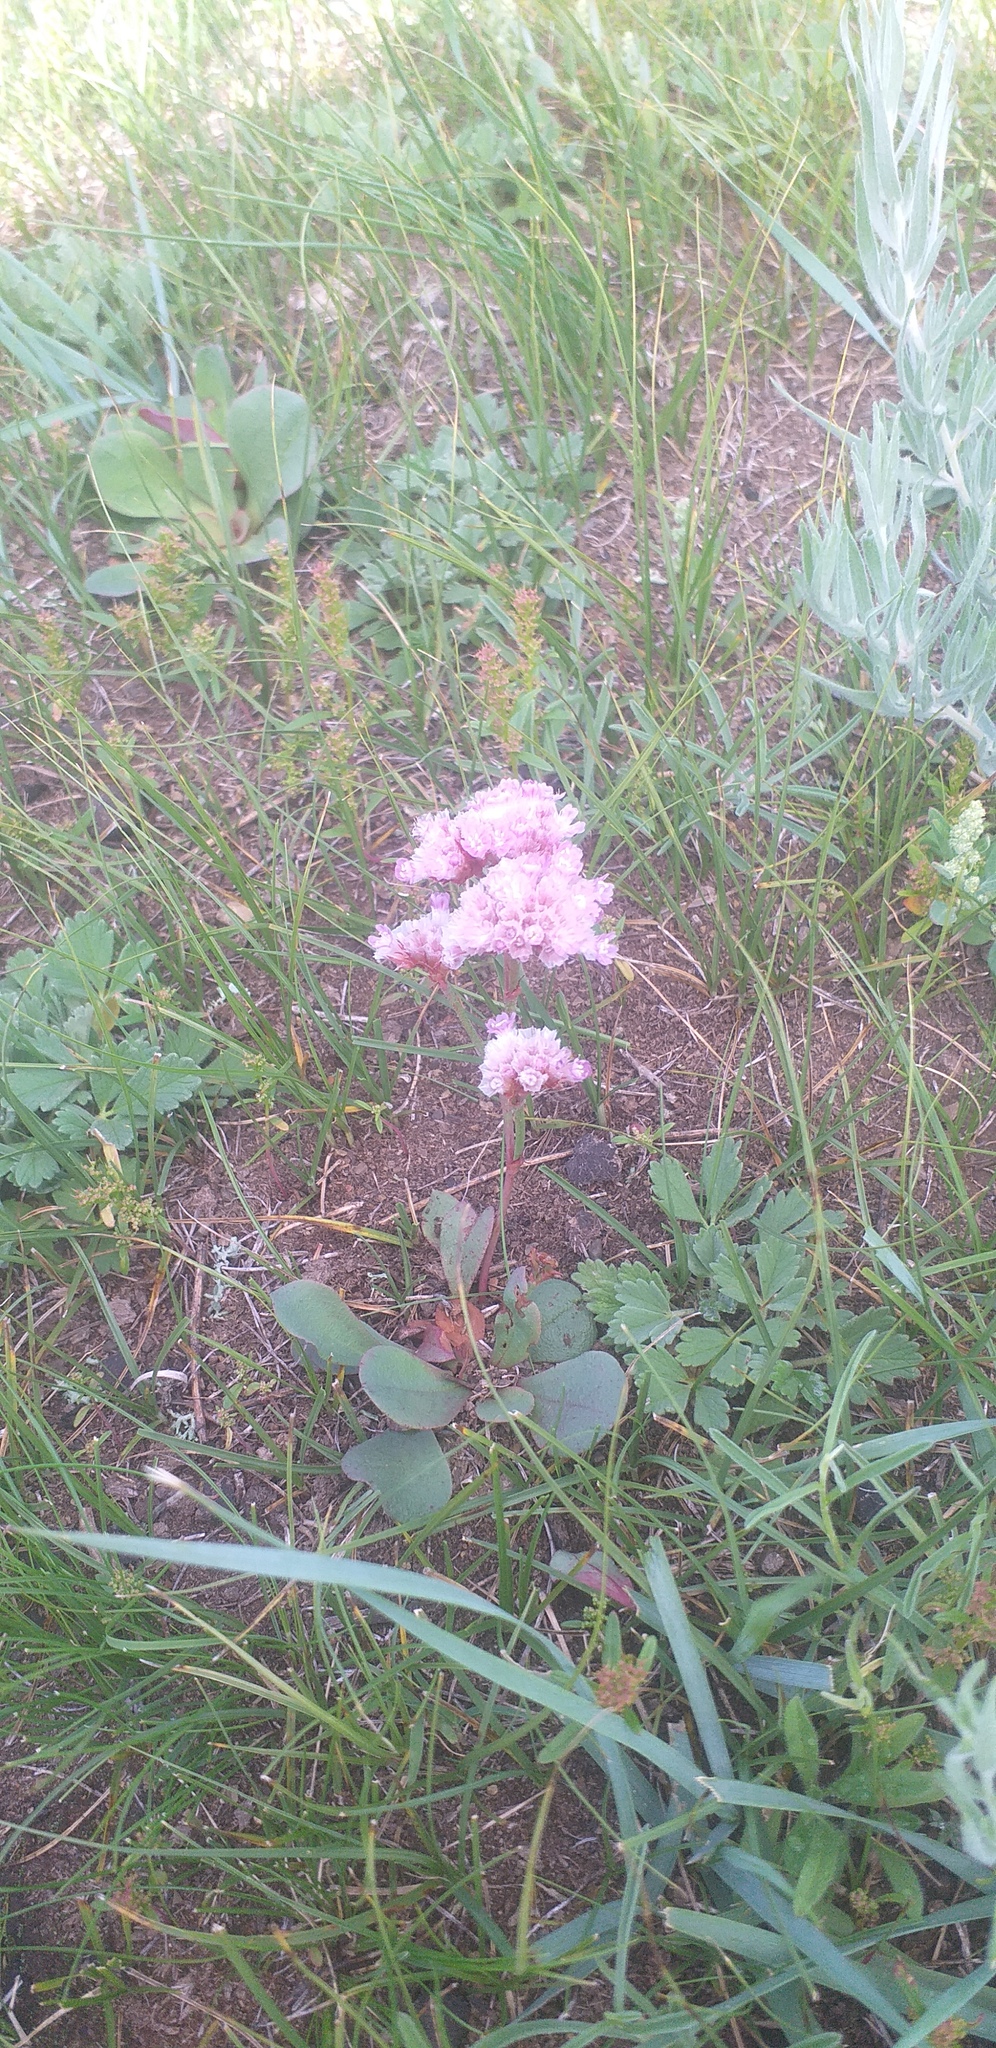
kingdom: Plantae
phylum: Tracheophyta
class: Magnoliopsida
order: Caryophyllales
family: Plumbaginaceae
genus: Goniolimon
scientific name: Goniolimon speciosum
